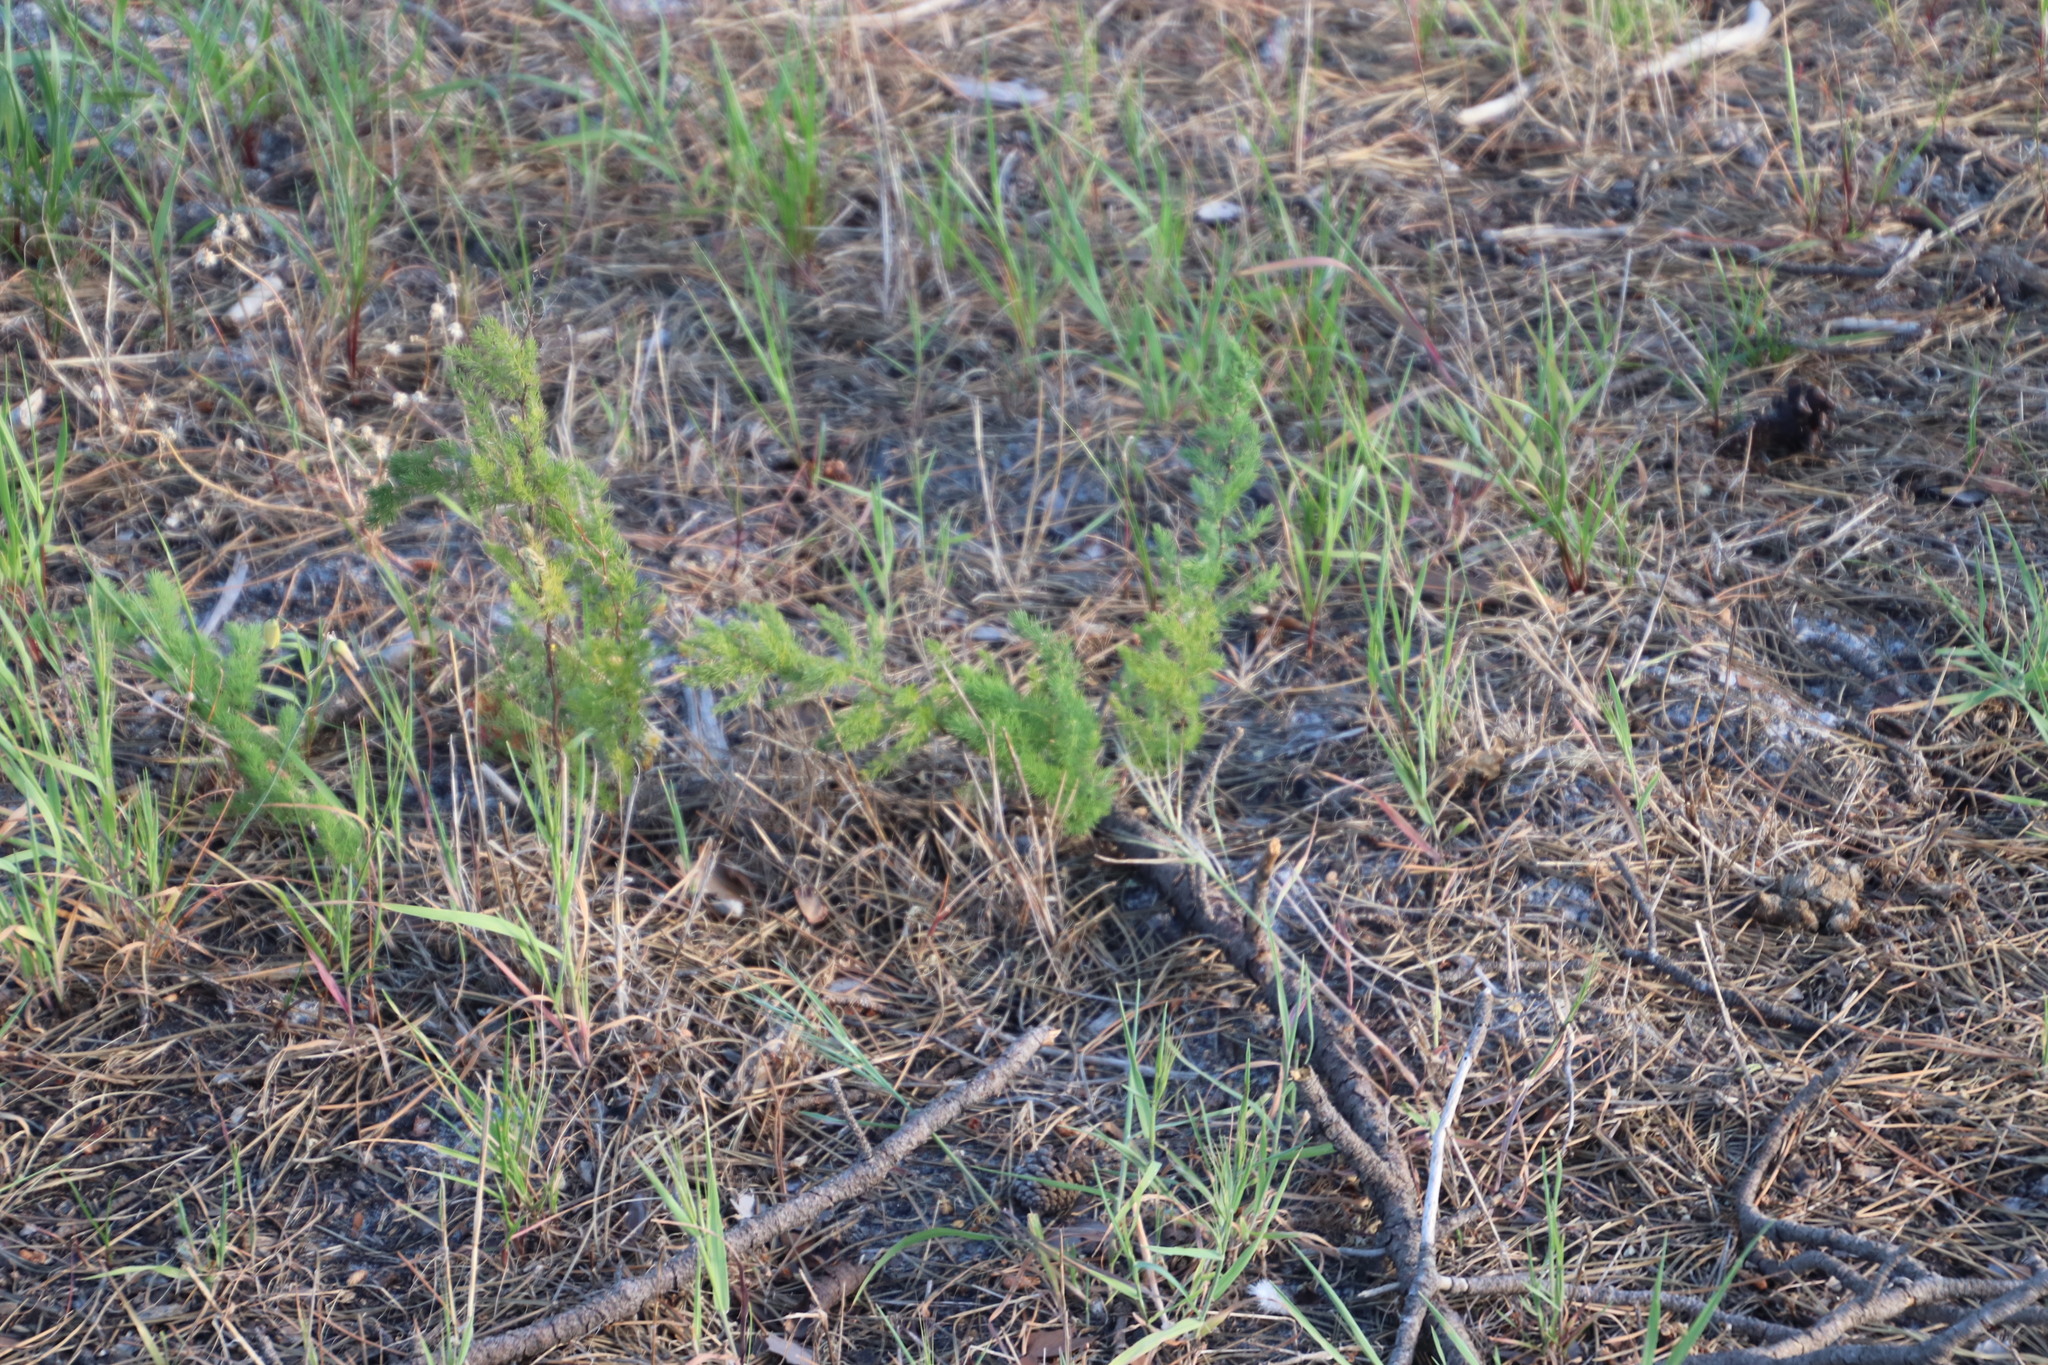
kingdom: Plantae
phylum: Tracheophyta
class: Liliopsida
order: Asparagales
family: Asparagaceae
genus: Asparagus
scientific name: Asparagus rubicundus
